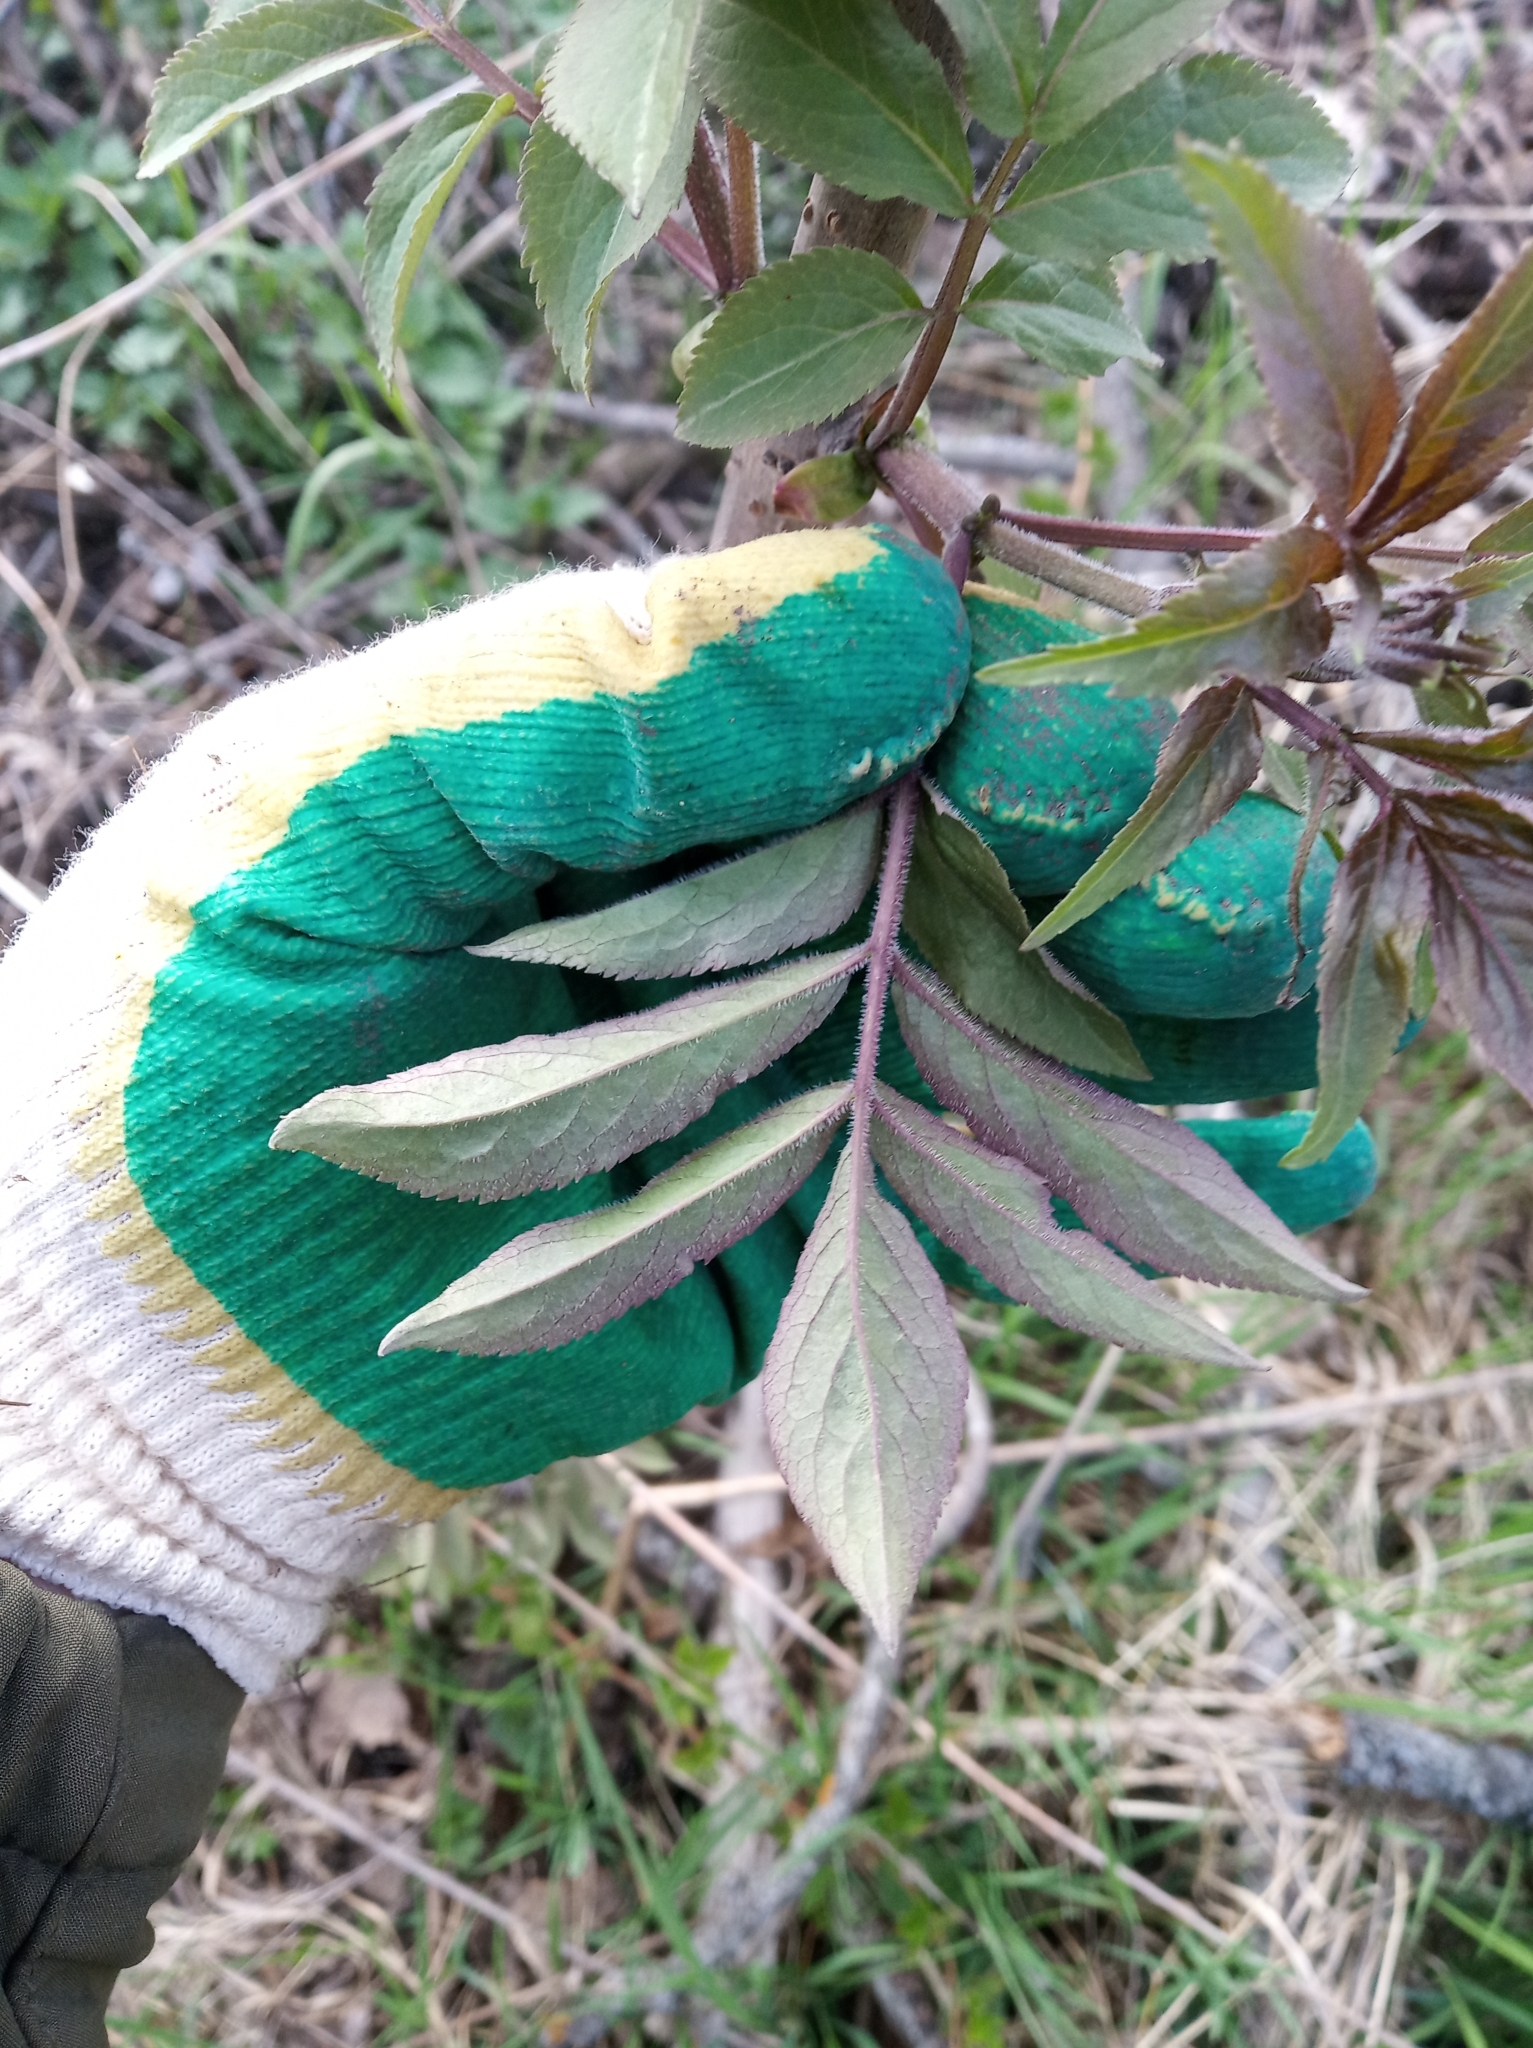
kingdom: Plantae
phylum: Tracheophyta
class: Magnoliopsida
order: Dipsacales
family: Viburnaceae
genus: Sambucus
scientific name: Sambucus racemosa
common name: Red-berried elder
